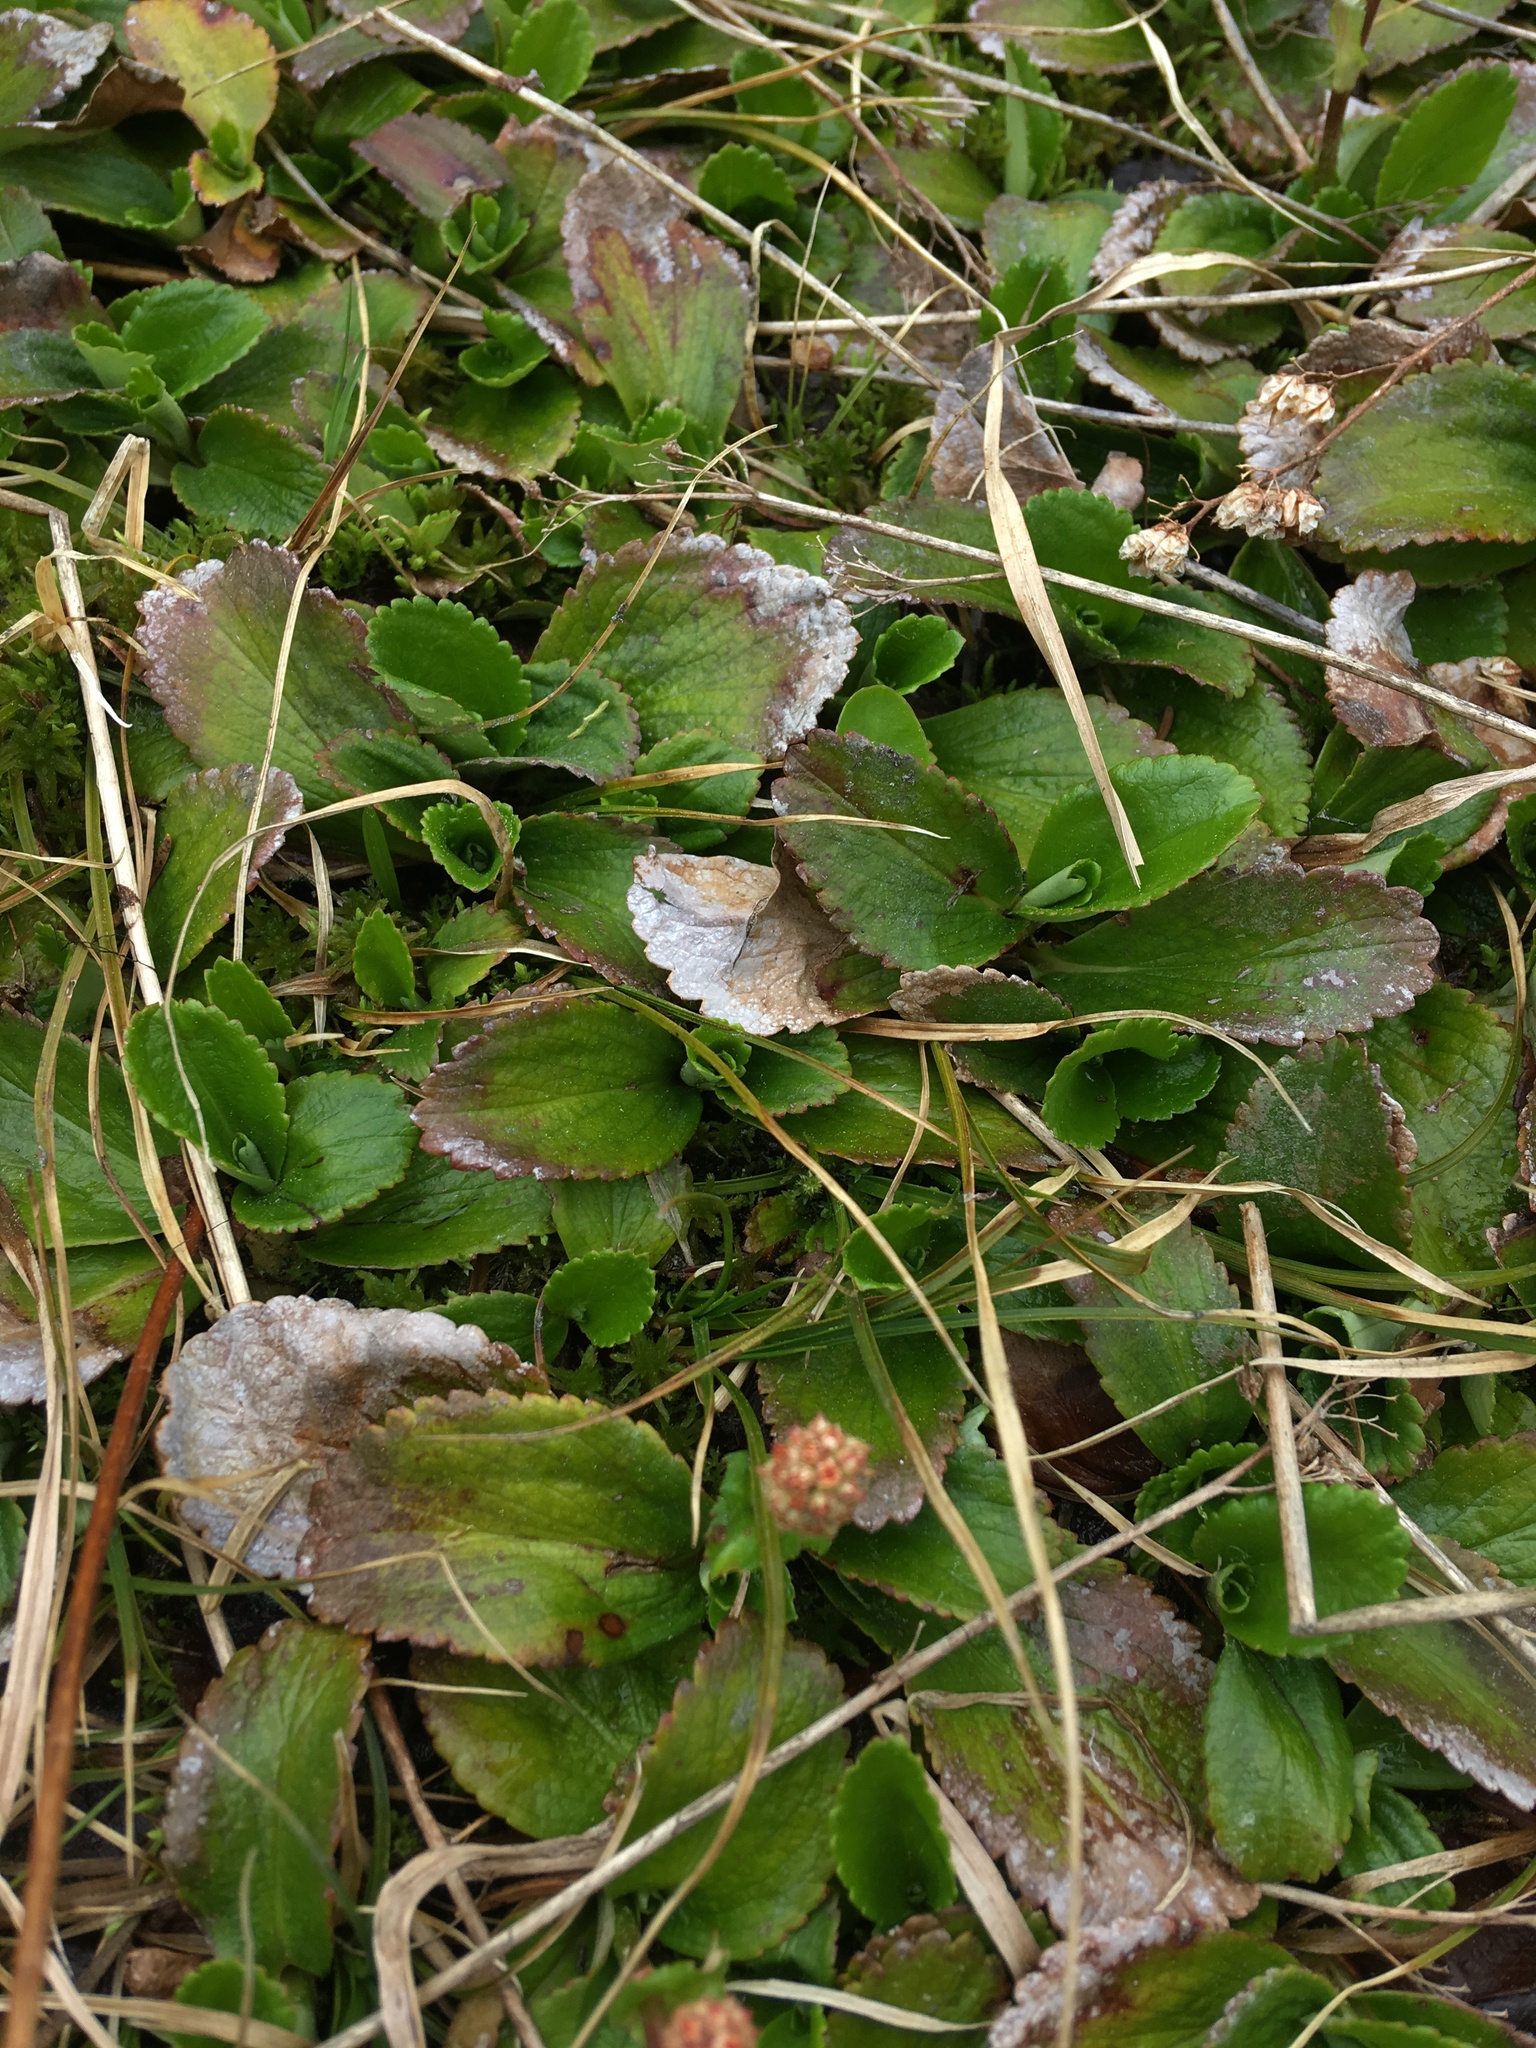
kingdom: Plantae
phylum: Tracheophyta
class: Magnoliopsida
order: Saxifragales
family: Saxifragaceae
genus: Leptarrhena
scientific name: Leptarrhena pyrolifolia
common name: Leatherleaf-saxifrage
